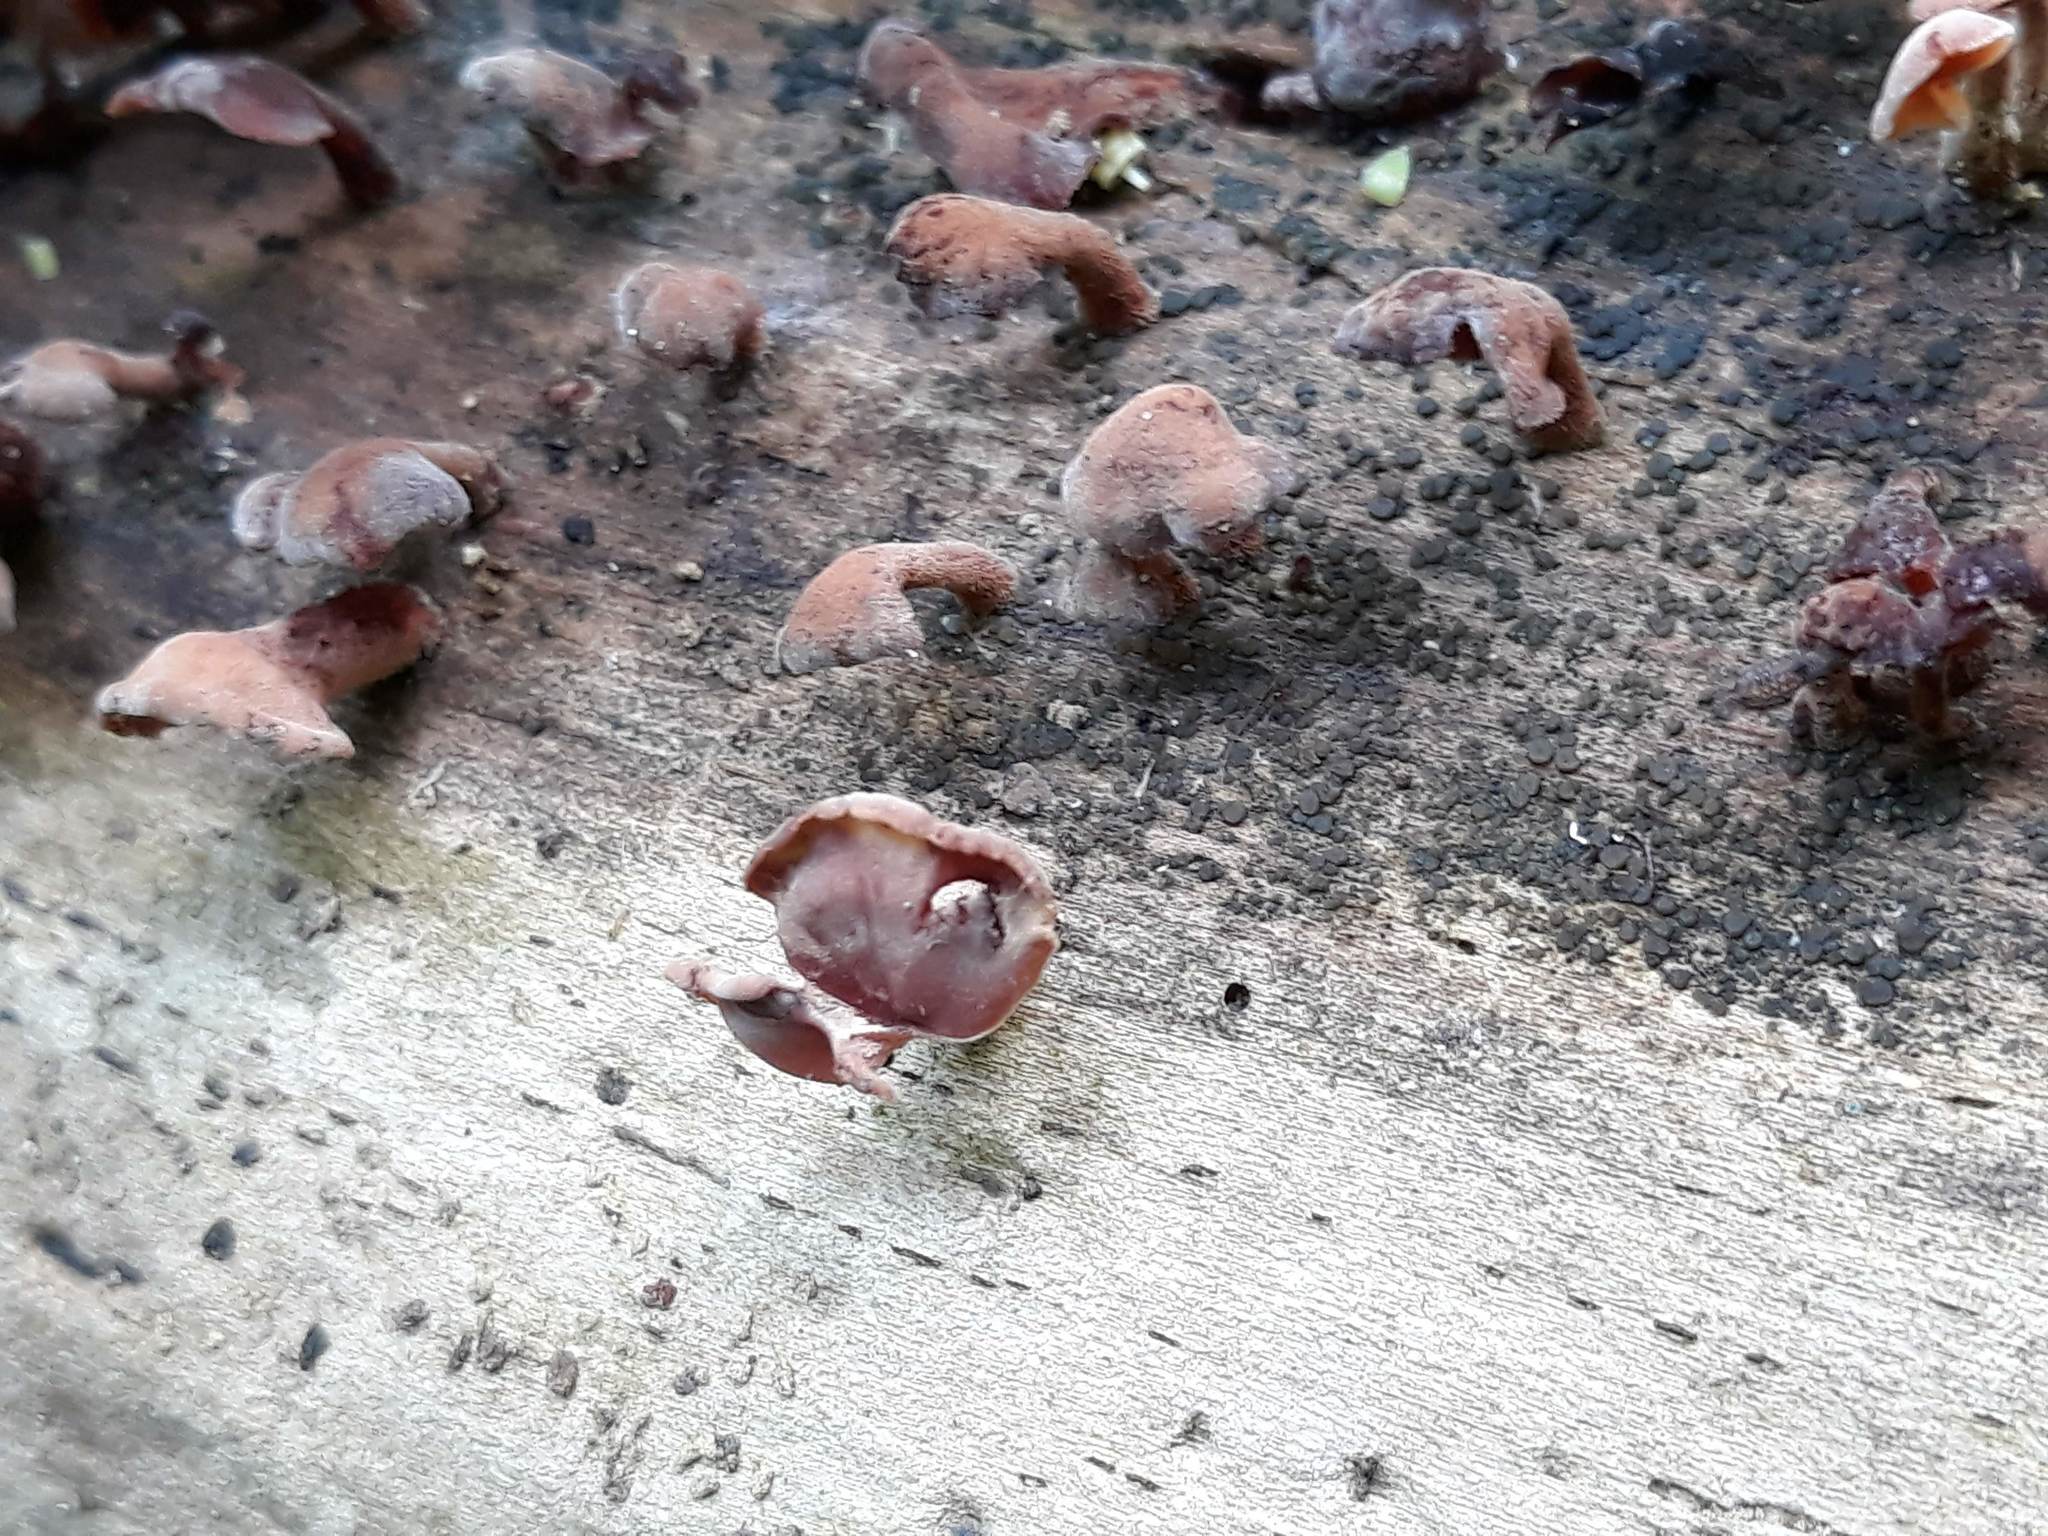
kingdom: Fungi
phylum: Basidiomycota
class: Dacrymycetes
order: Dacrymycetales
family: Dacrymycetaceae
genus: Dacryopinax
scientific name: Dacryopinax elegans
